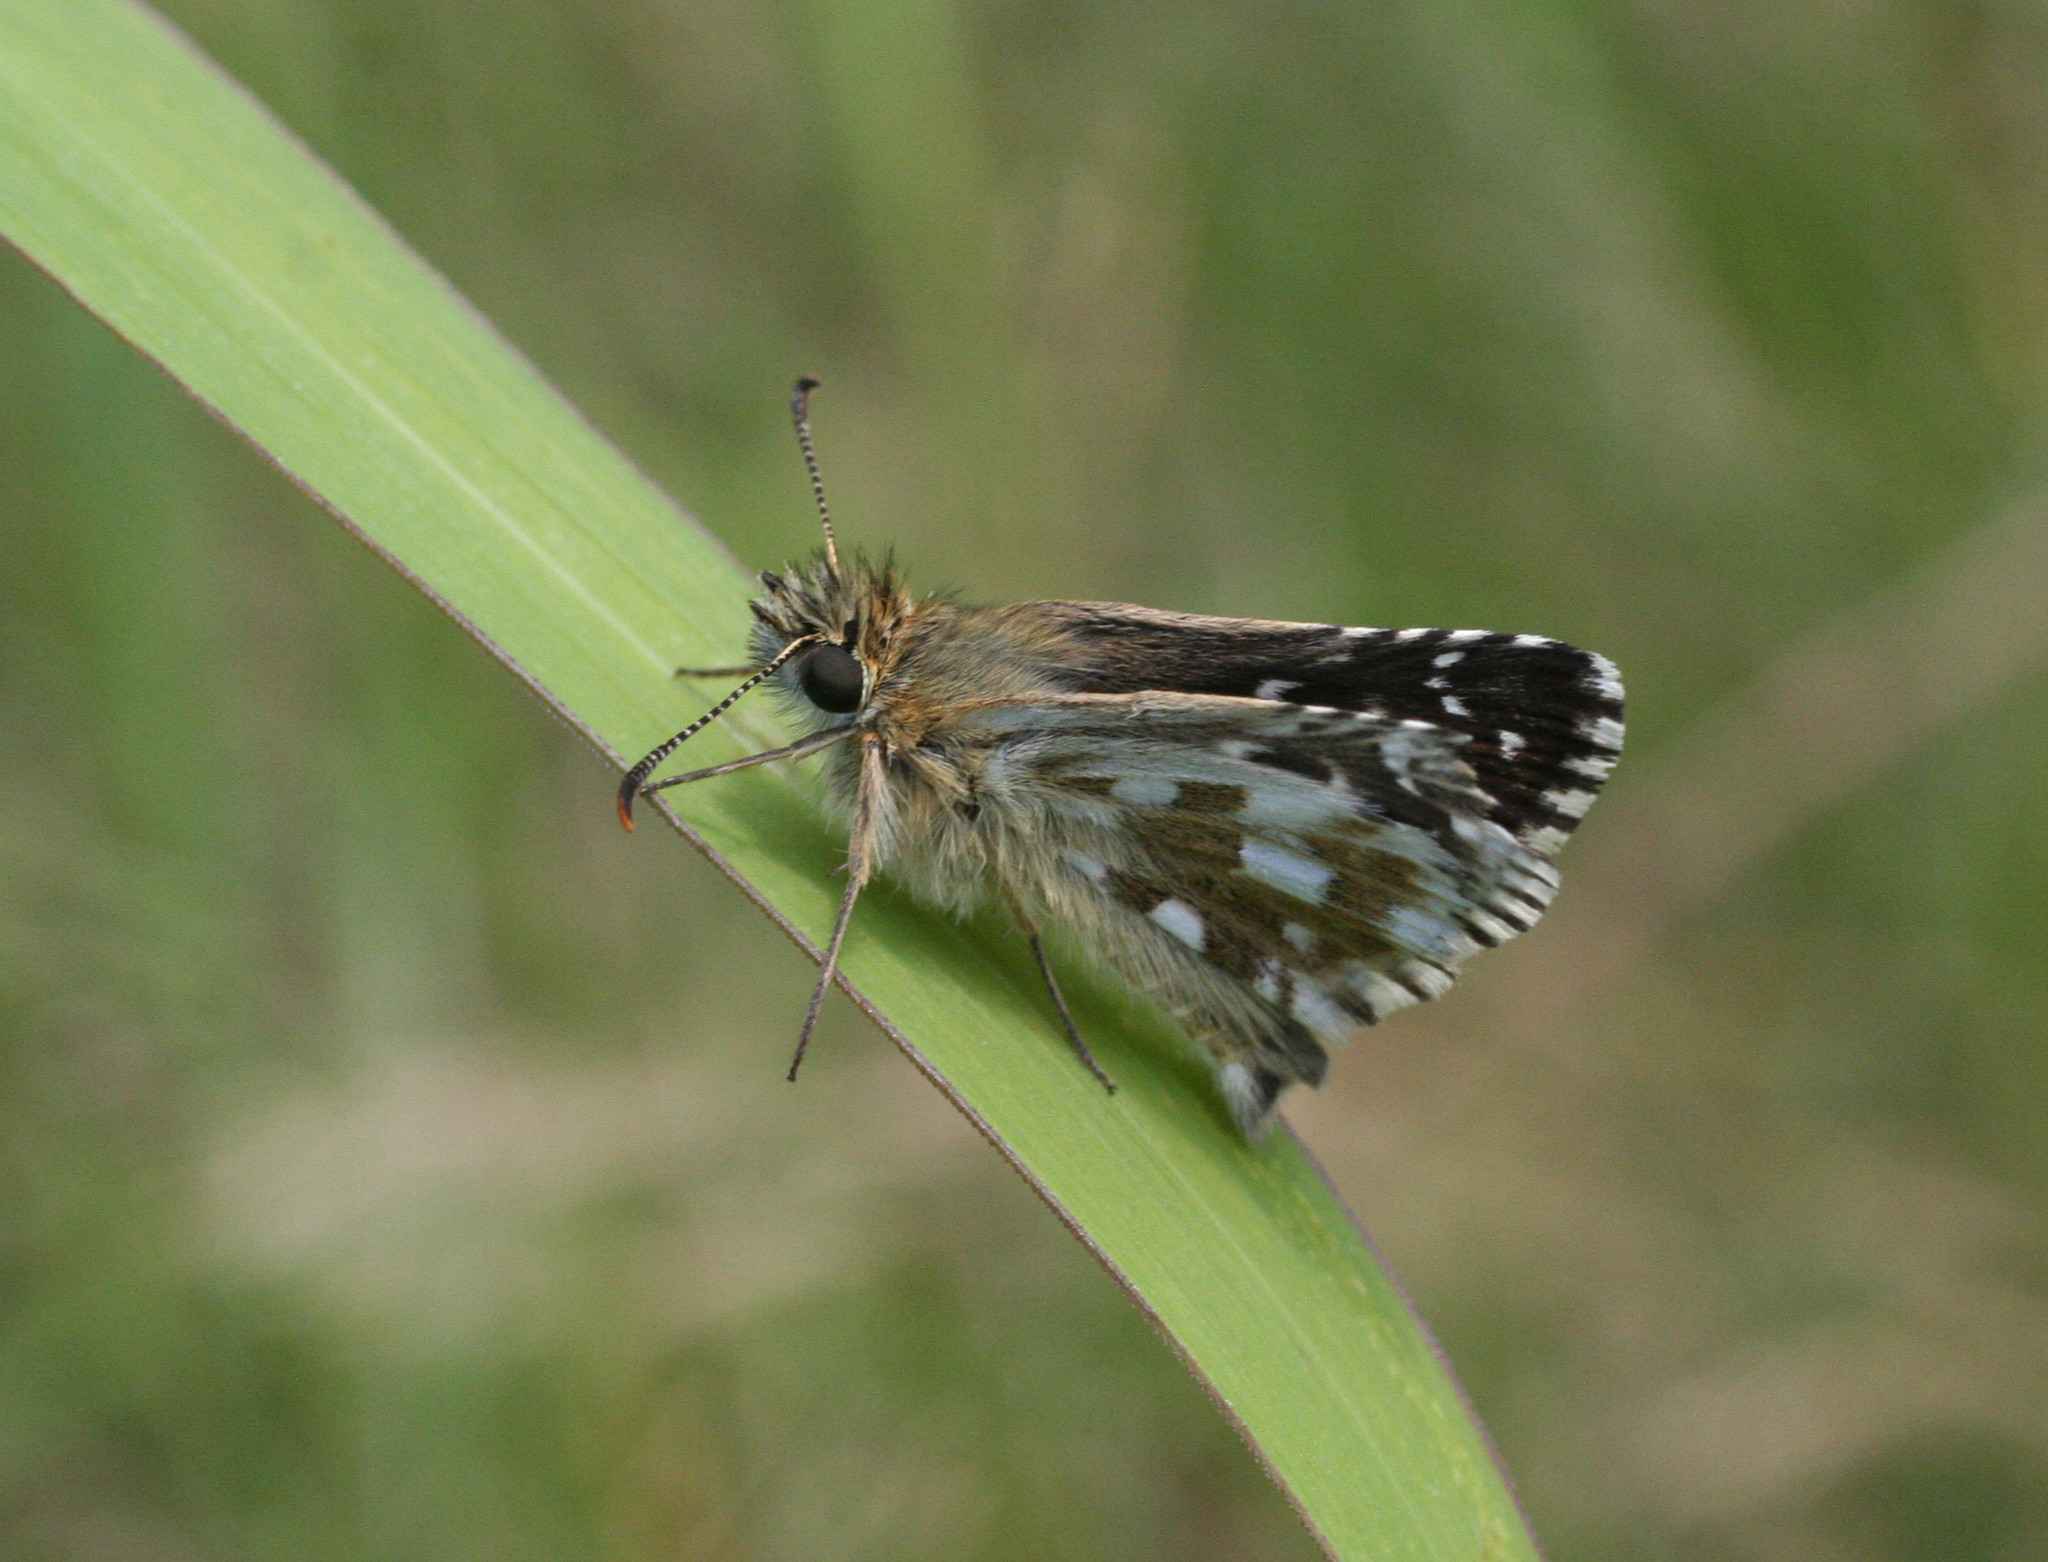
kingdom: Animalia
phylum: Arthropoda
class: Insecta
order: Lepidoptera
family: Hesperiidae
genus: Pyrgus
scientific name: Pyrgus
